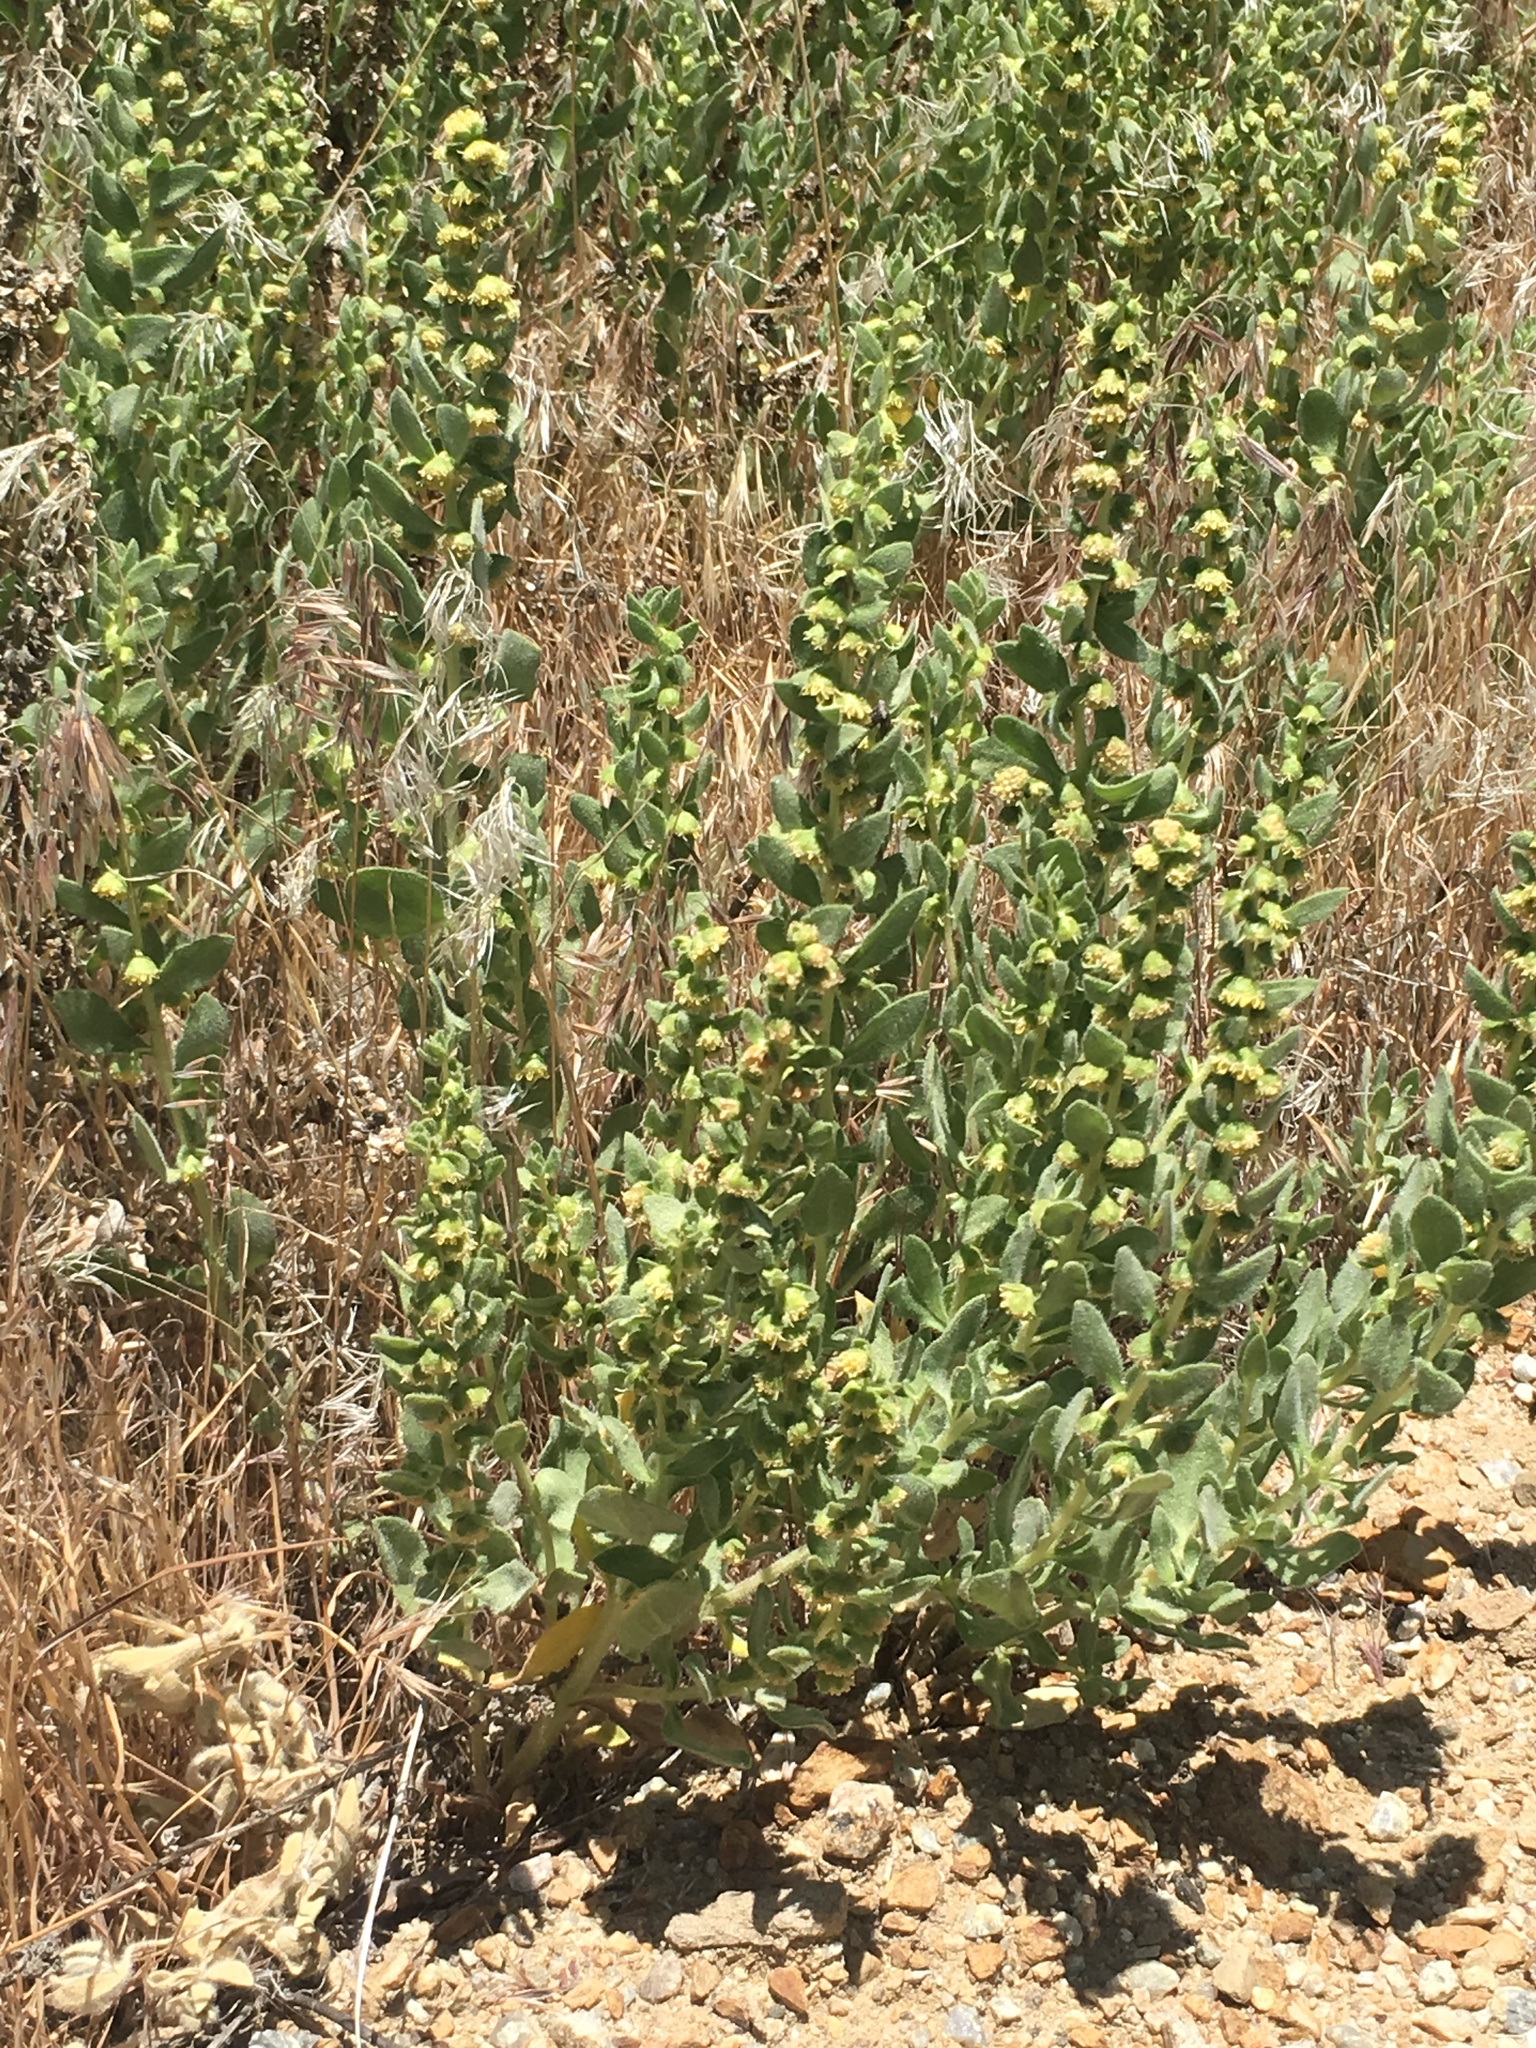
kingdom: Plantae
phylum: Tracheophyta
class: Magnoliopsida
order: Asterales
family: Asteraceae
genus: Iva
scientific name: Iva axillaris
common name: Poverty sumpweed
